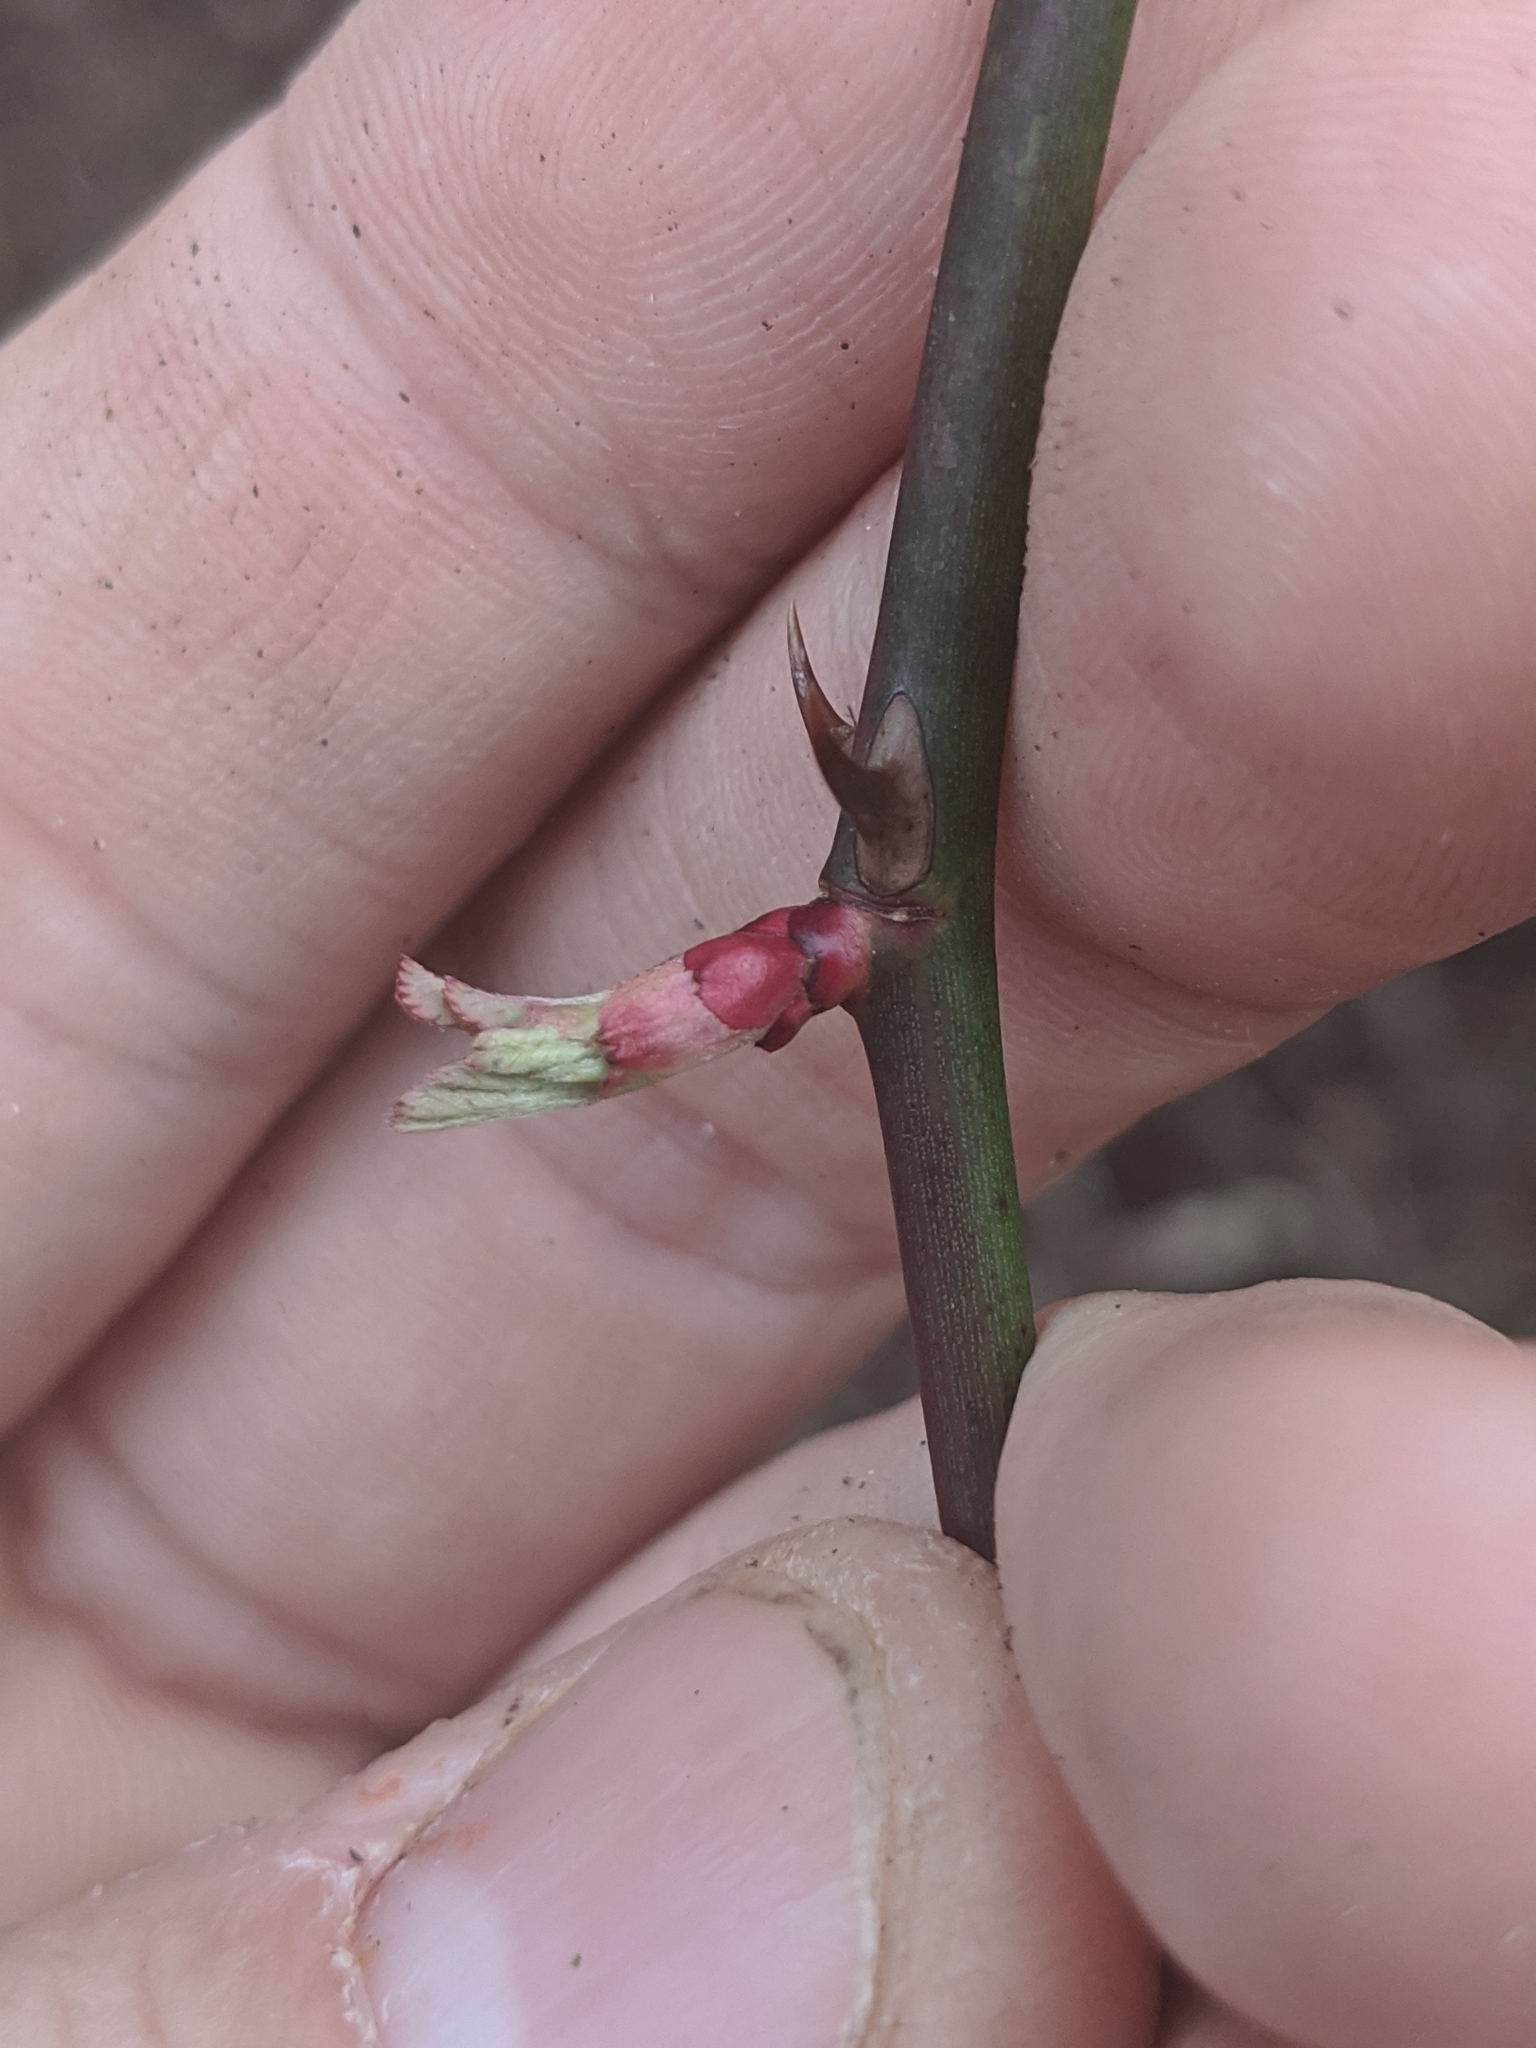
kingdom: Plantae
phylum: Tracheophyta
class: Magnoliopsida
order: Rosales
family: Rosaceae
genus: Rosa
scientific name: Rosa multiflora
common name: Multiflora rose
